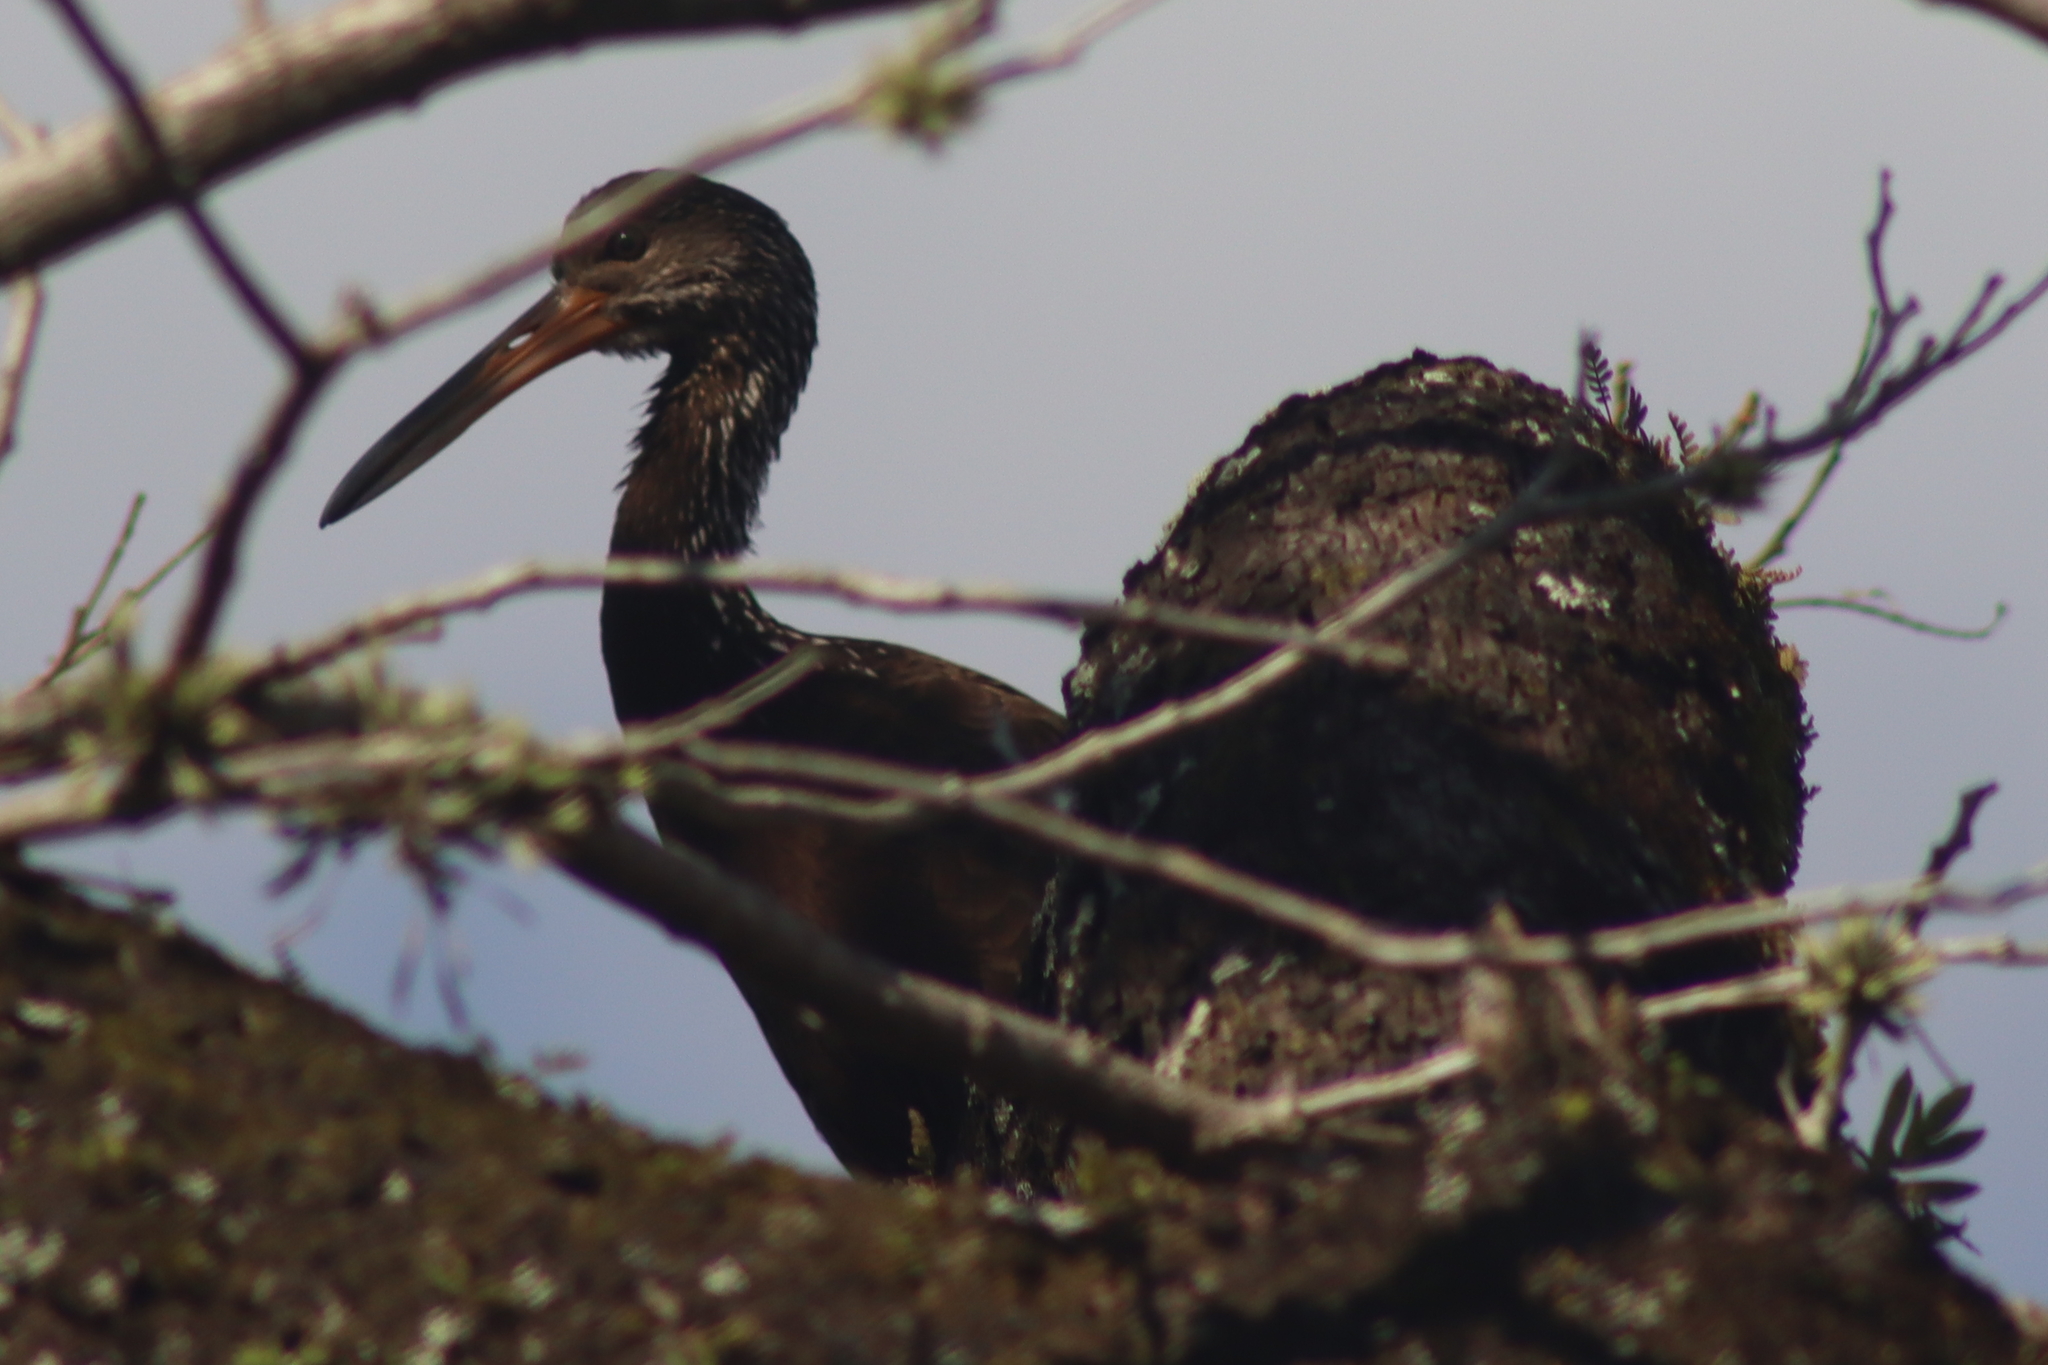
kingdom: Animalia
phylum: Chordata
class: Aves
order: Gruiformes
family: Aramidae
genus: Aramus
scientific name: Aramus guarauna
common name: Limpkin
